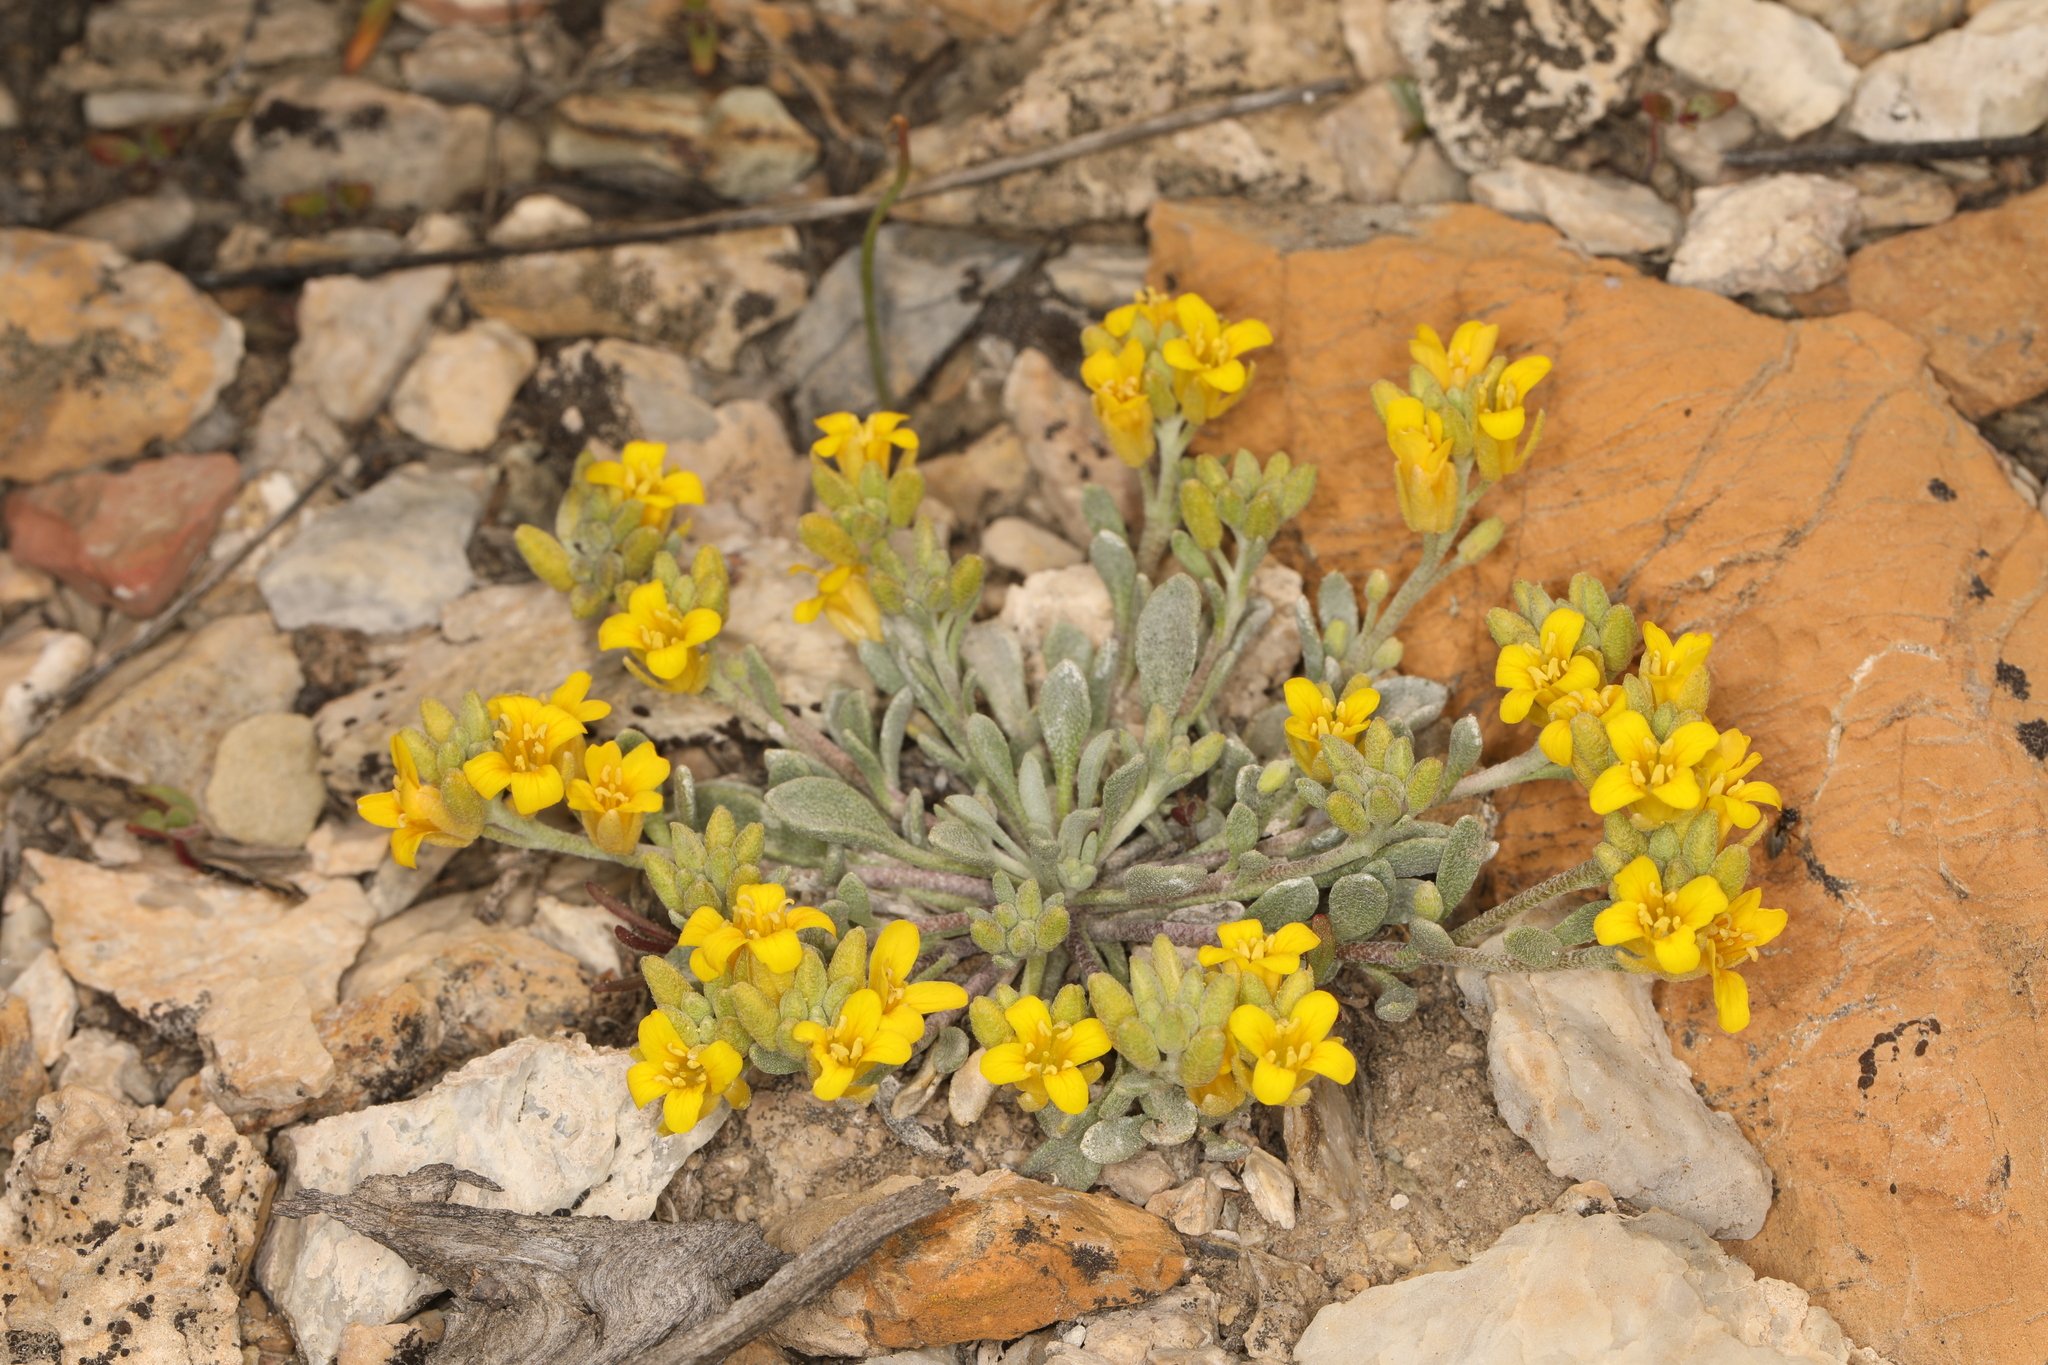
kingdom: Plantae
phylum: Tracheophyta
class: Magnoliopsida
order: Brassicales
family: Brassicaceae
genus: Physaria
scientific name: Physaria kingii
